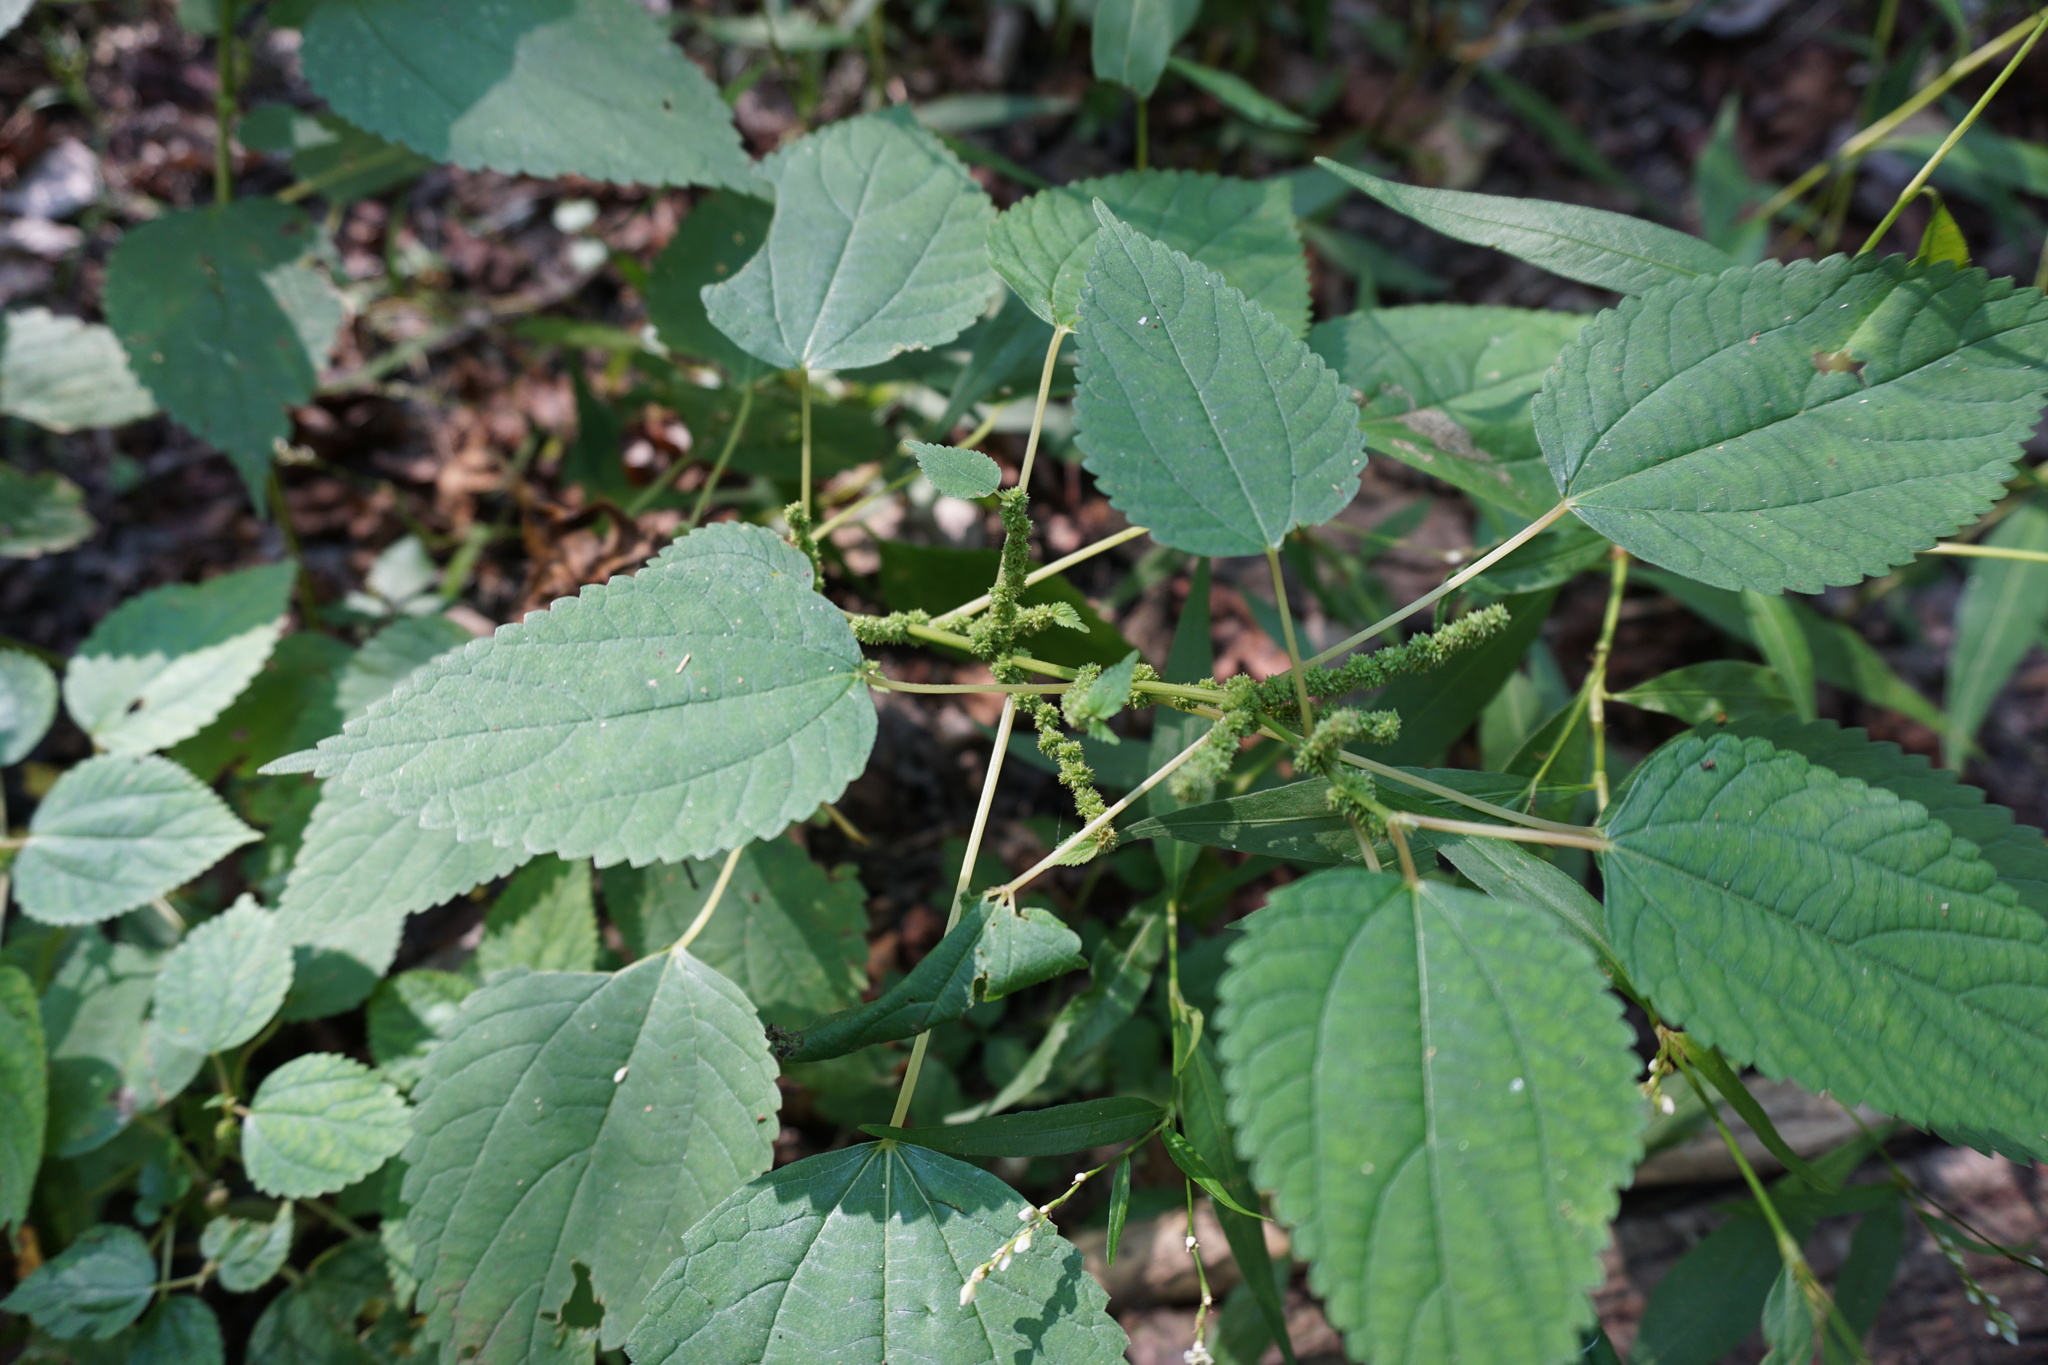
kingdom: Plantae
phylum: Tracheophyta
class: Magnoliopsida
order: Rosales
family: Urticaceae
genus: Boehmeria
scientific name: Boehmeria cylindrica
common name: Bog-hemp
